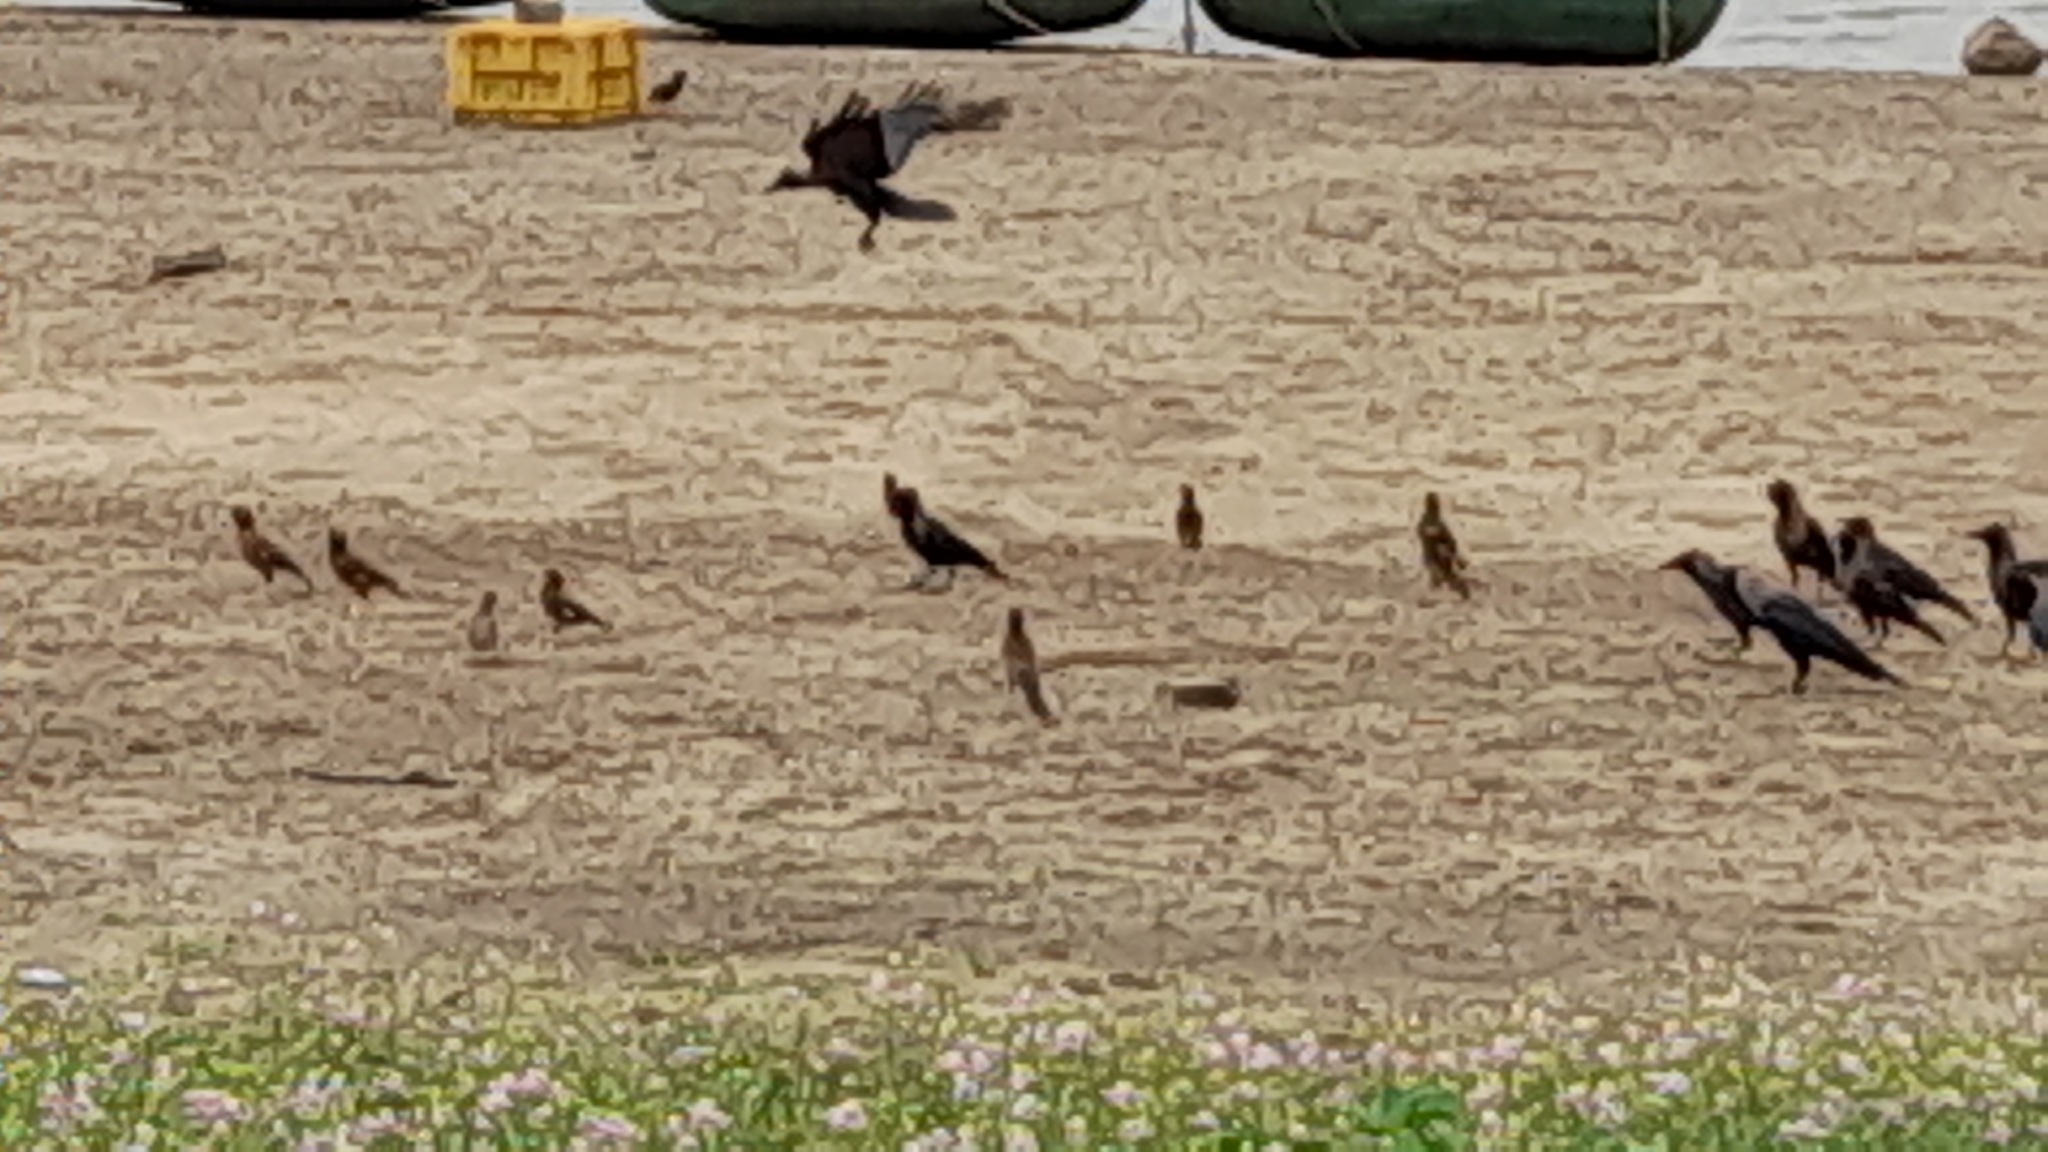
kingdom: Animalia
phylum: Chordata
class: Aves
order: Passeriformes
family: Corvidae
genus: Corvus
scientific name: Corvus splendens
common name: House crow
